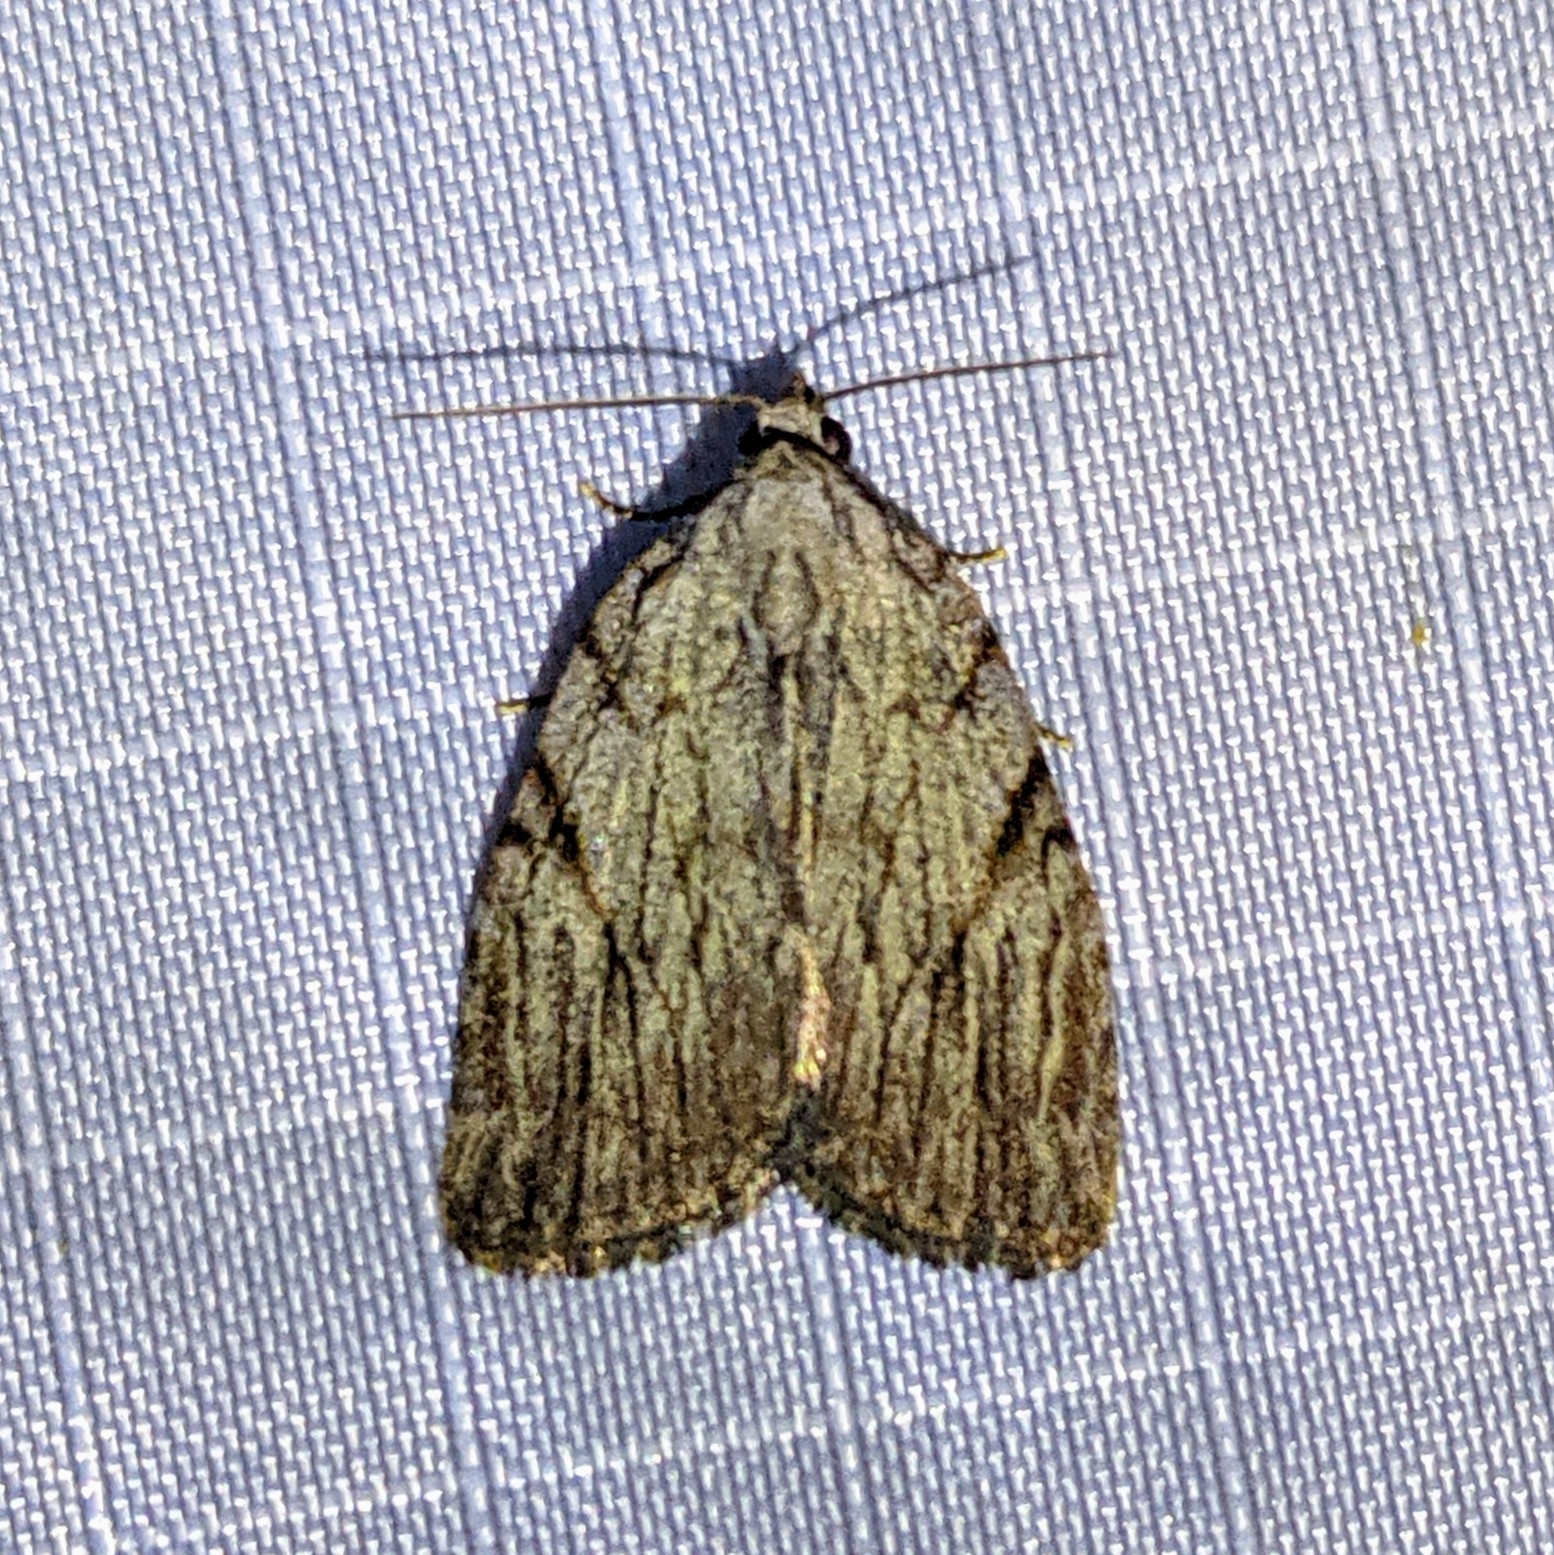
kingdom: Animalia
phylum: Arthropoda
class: Insecta
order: Lepidoptera
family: Noctuidae
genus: Balsa
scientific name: Balsa tristrigella
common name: Three-lined balsa moth
